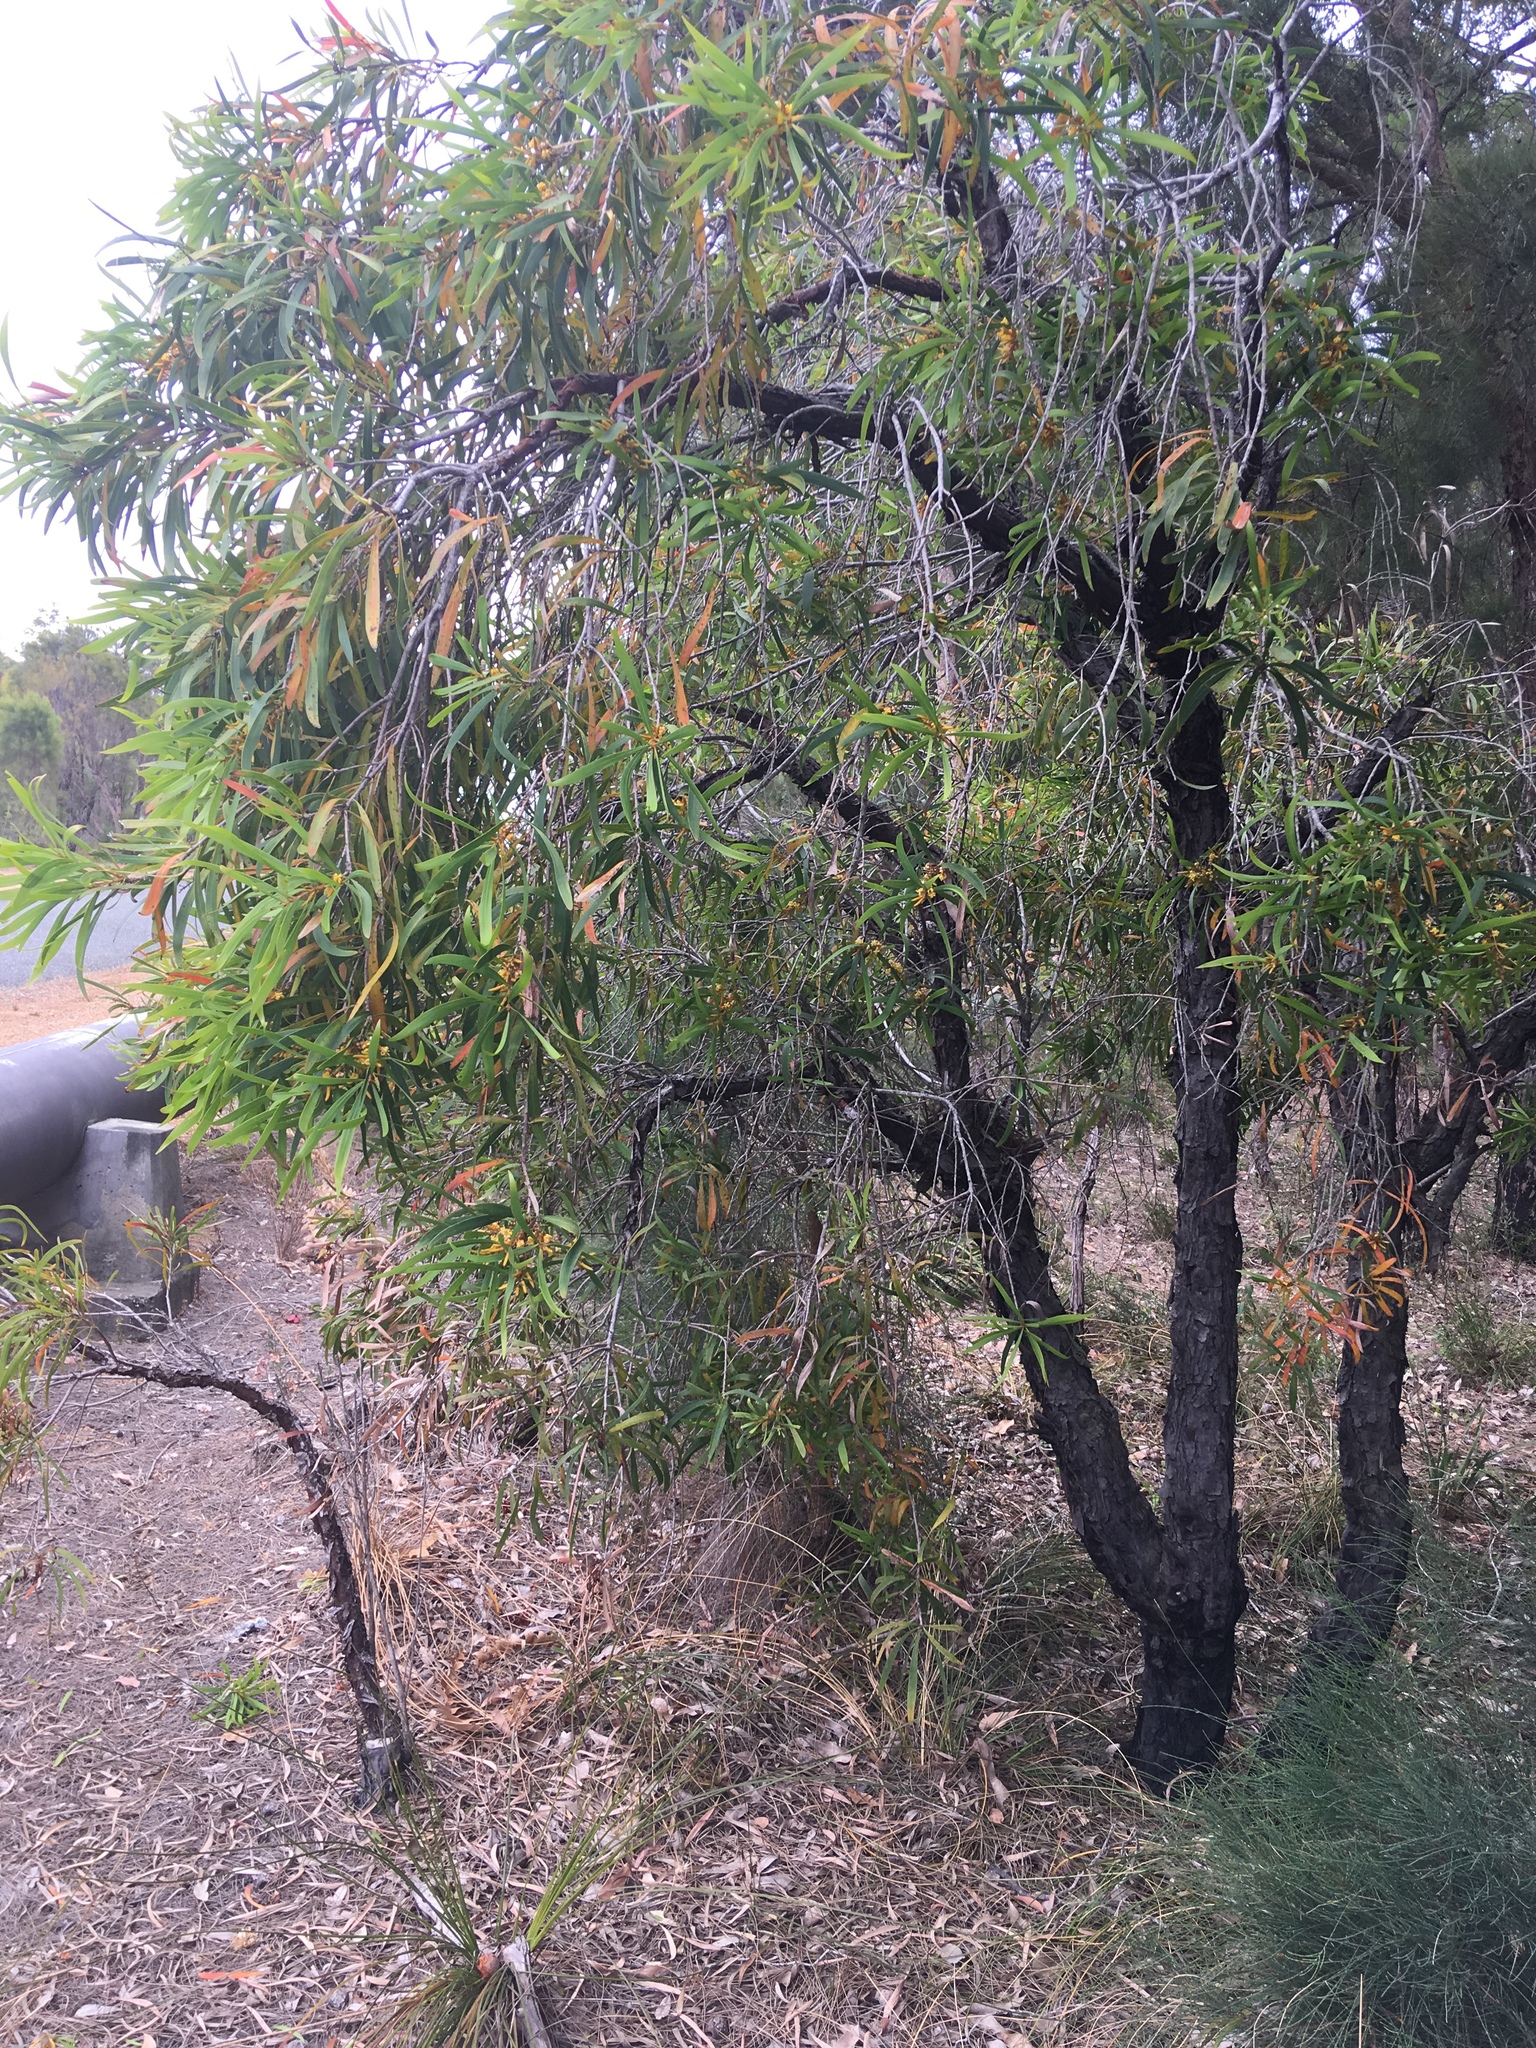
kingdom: Plantae
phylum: Tracheophyta
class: Magnoliopsida
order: Proteales
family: Proteaceae
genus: Persoonia
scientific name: Persoonia longifolia
